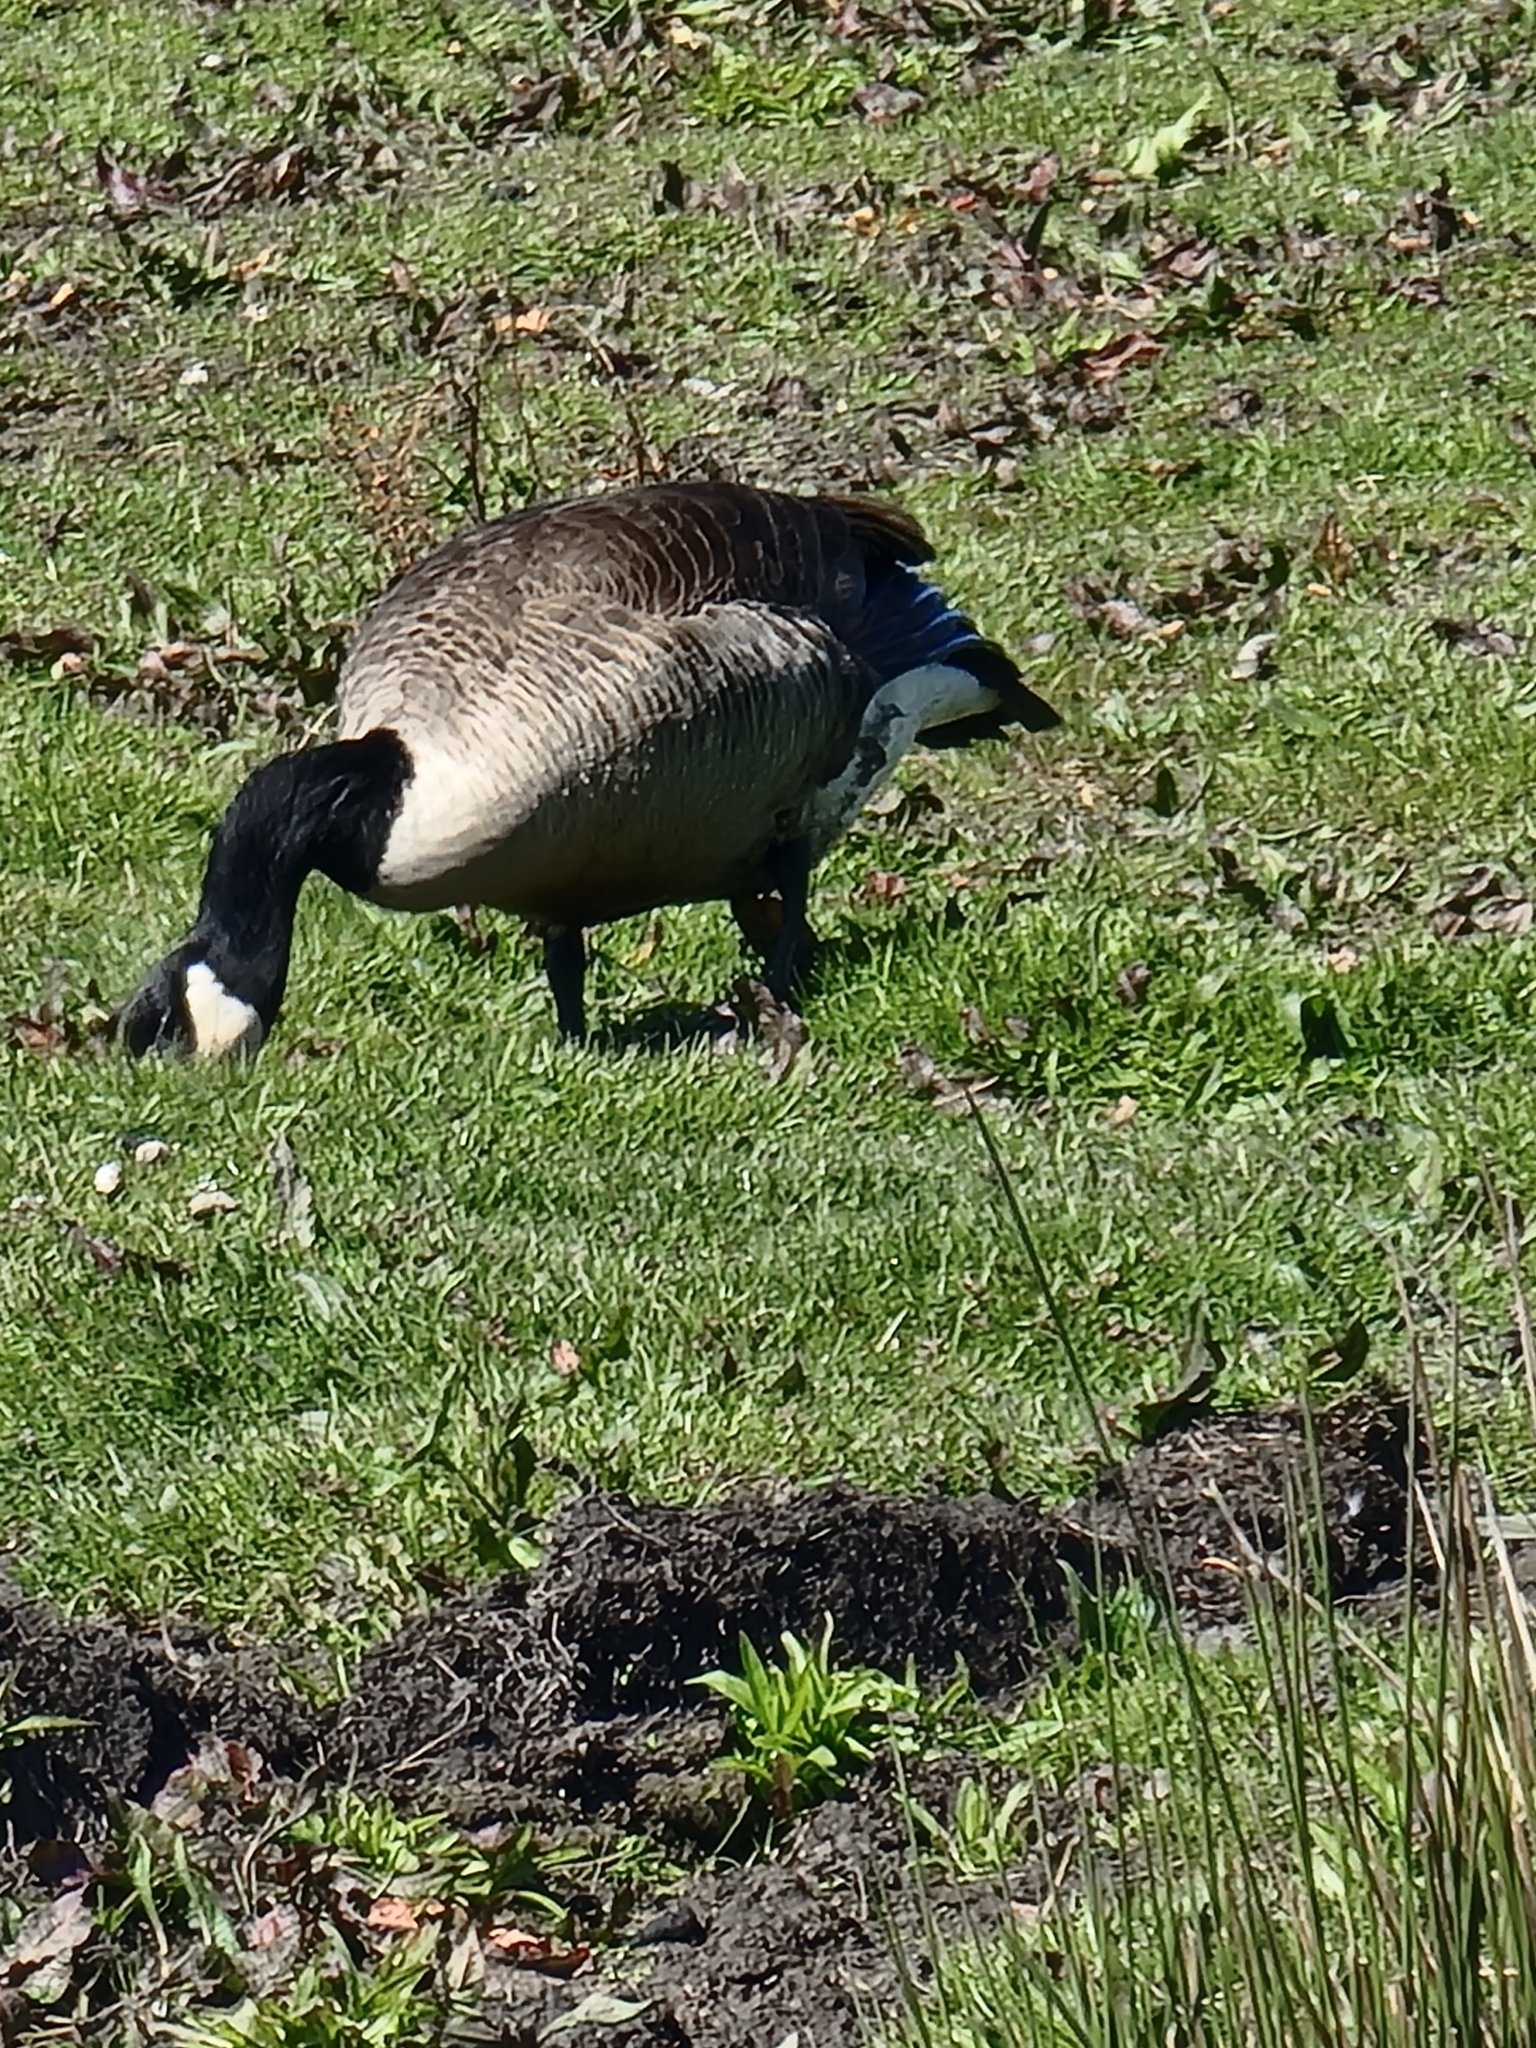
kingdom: Animalia
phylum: Chordata
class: Aves
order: Anseriformes
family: Anatidae
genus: Branta
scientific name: Branta canadensis
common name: Canada goose
